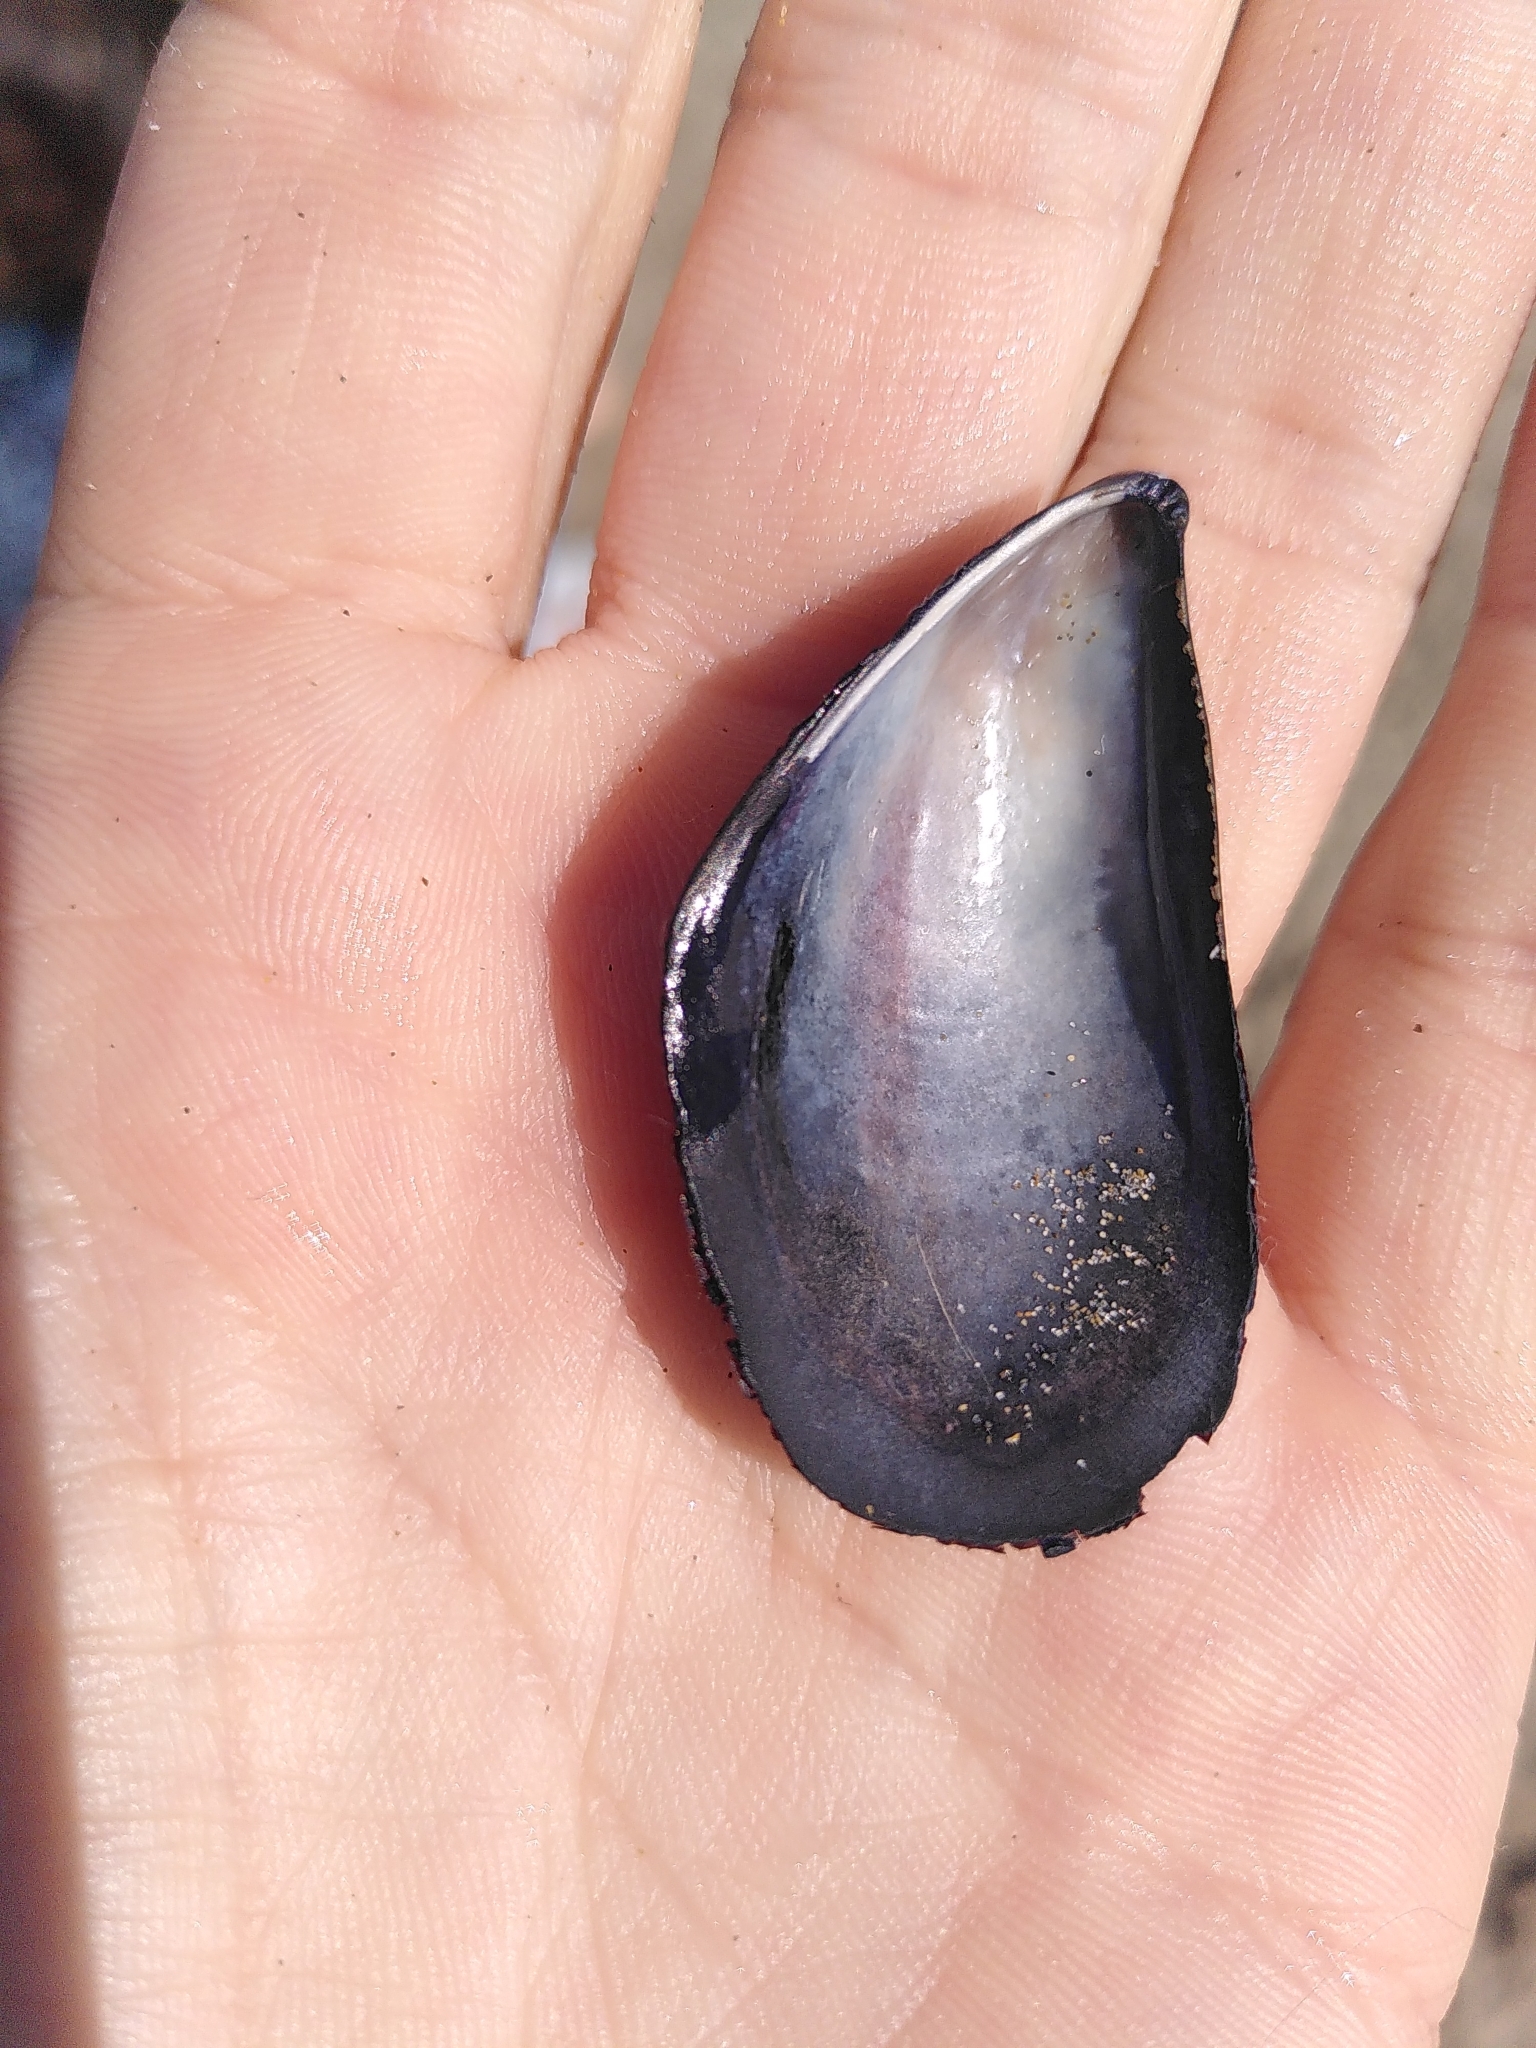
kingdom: Animalia
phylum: Mollusca
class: Bivalvia
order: Mytilida
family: Mytilidae
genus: Mytilus
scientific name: Mytilus galloprovincialis
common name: Mediterranean mussel
